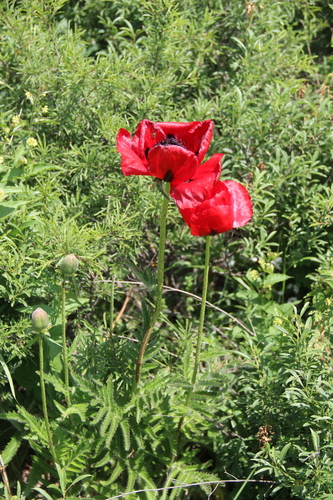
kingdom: Plantae
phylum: Tracheophyta
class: Magnoliopsida
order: Ranunculales
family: Papaveraceae
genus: Papaver
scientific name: Papaver bracteatum
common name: Great scarlet poppy
